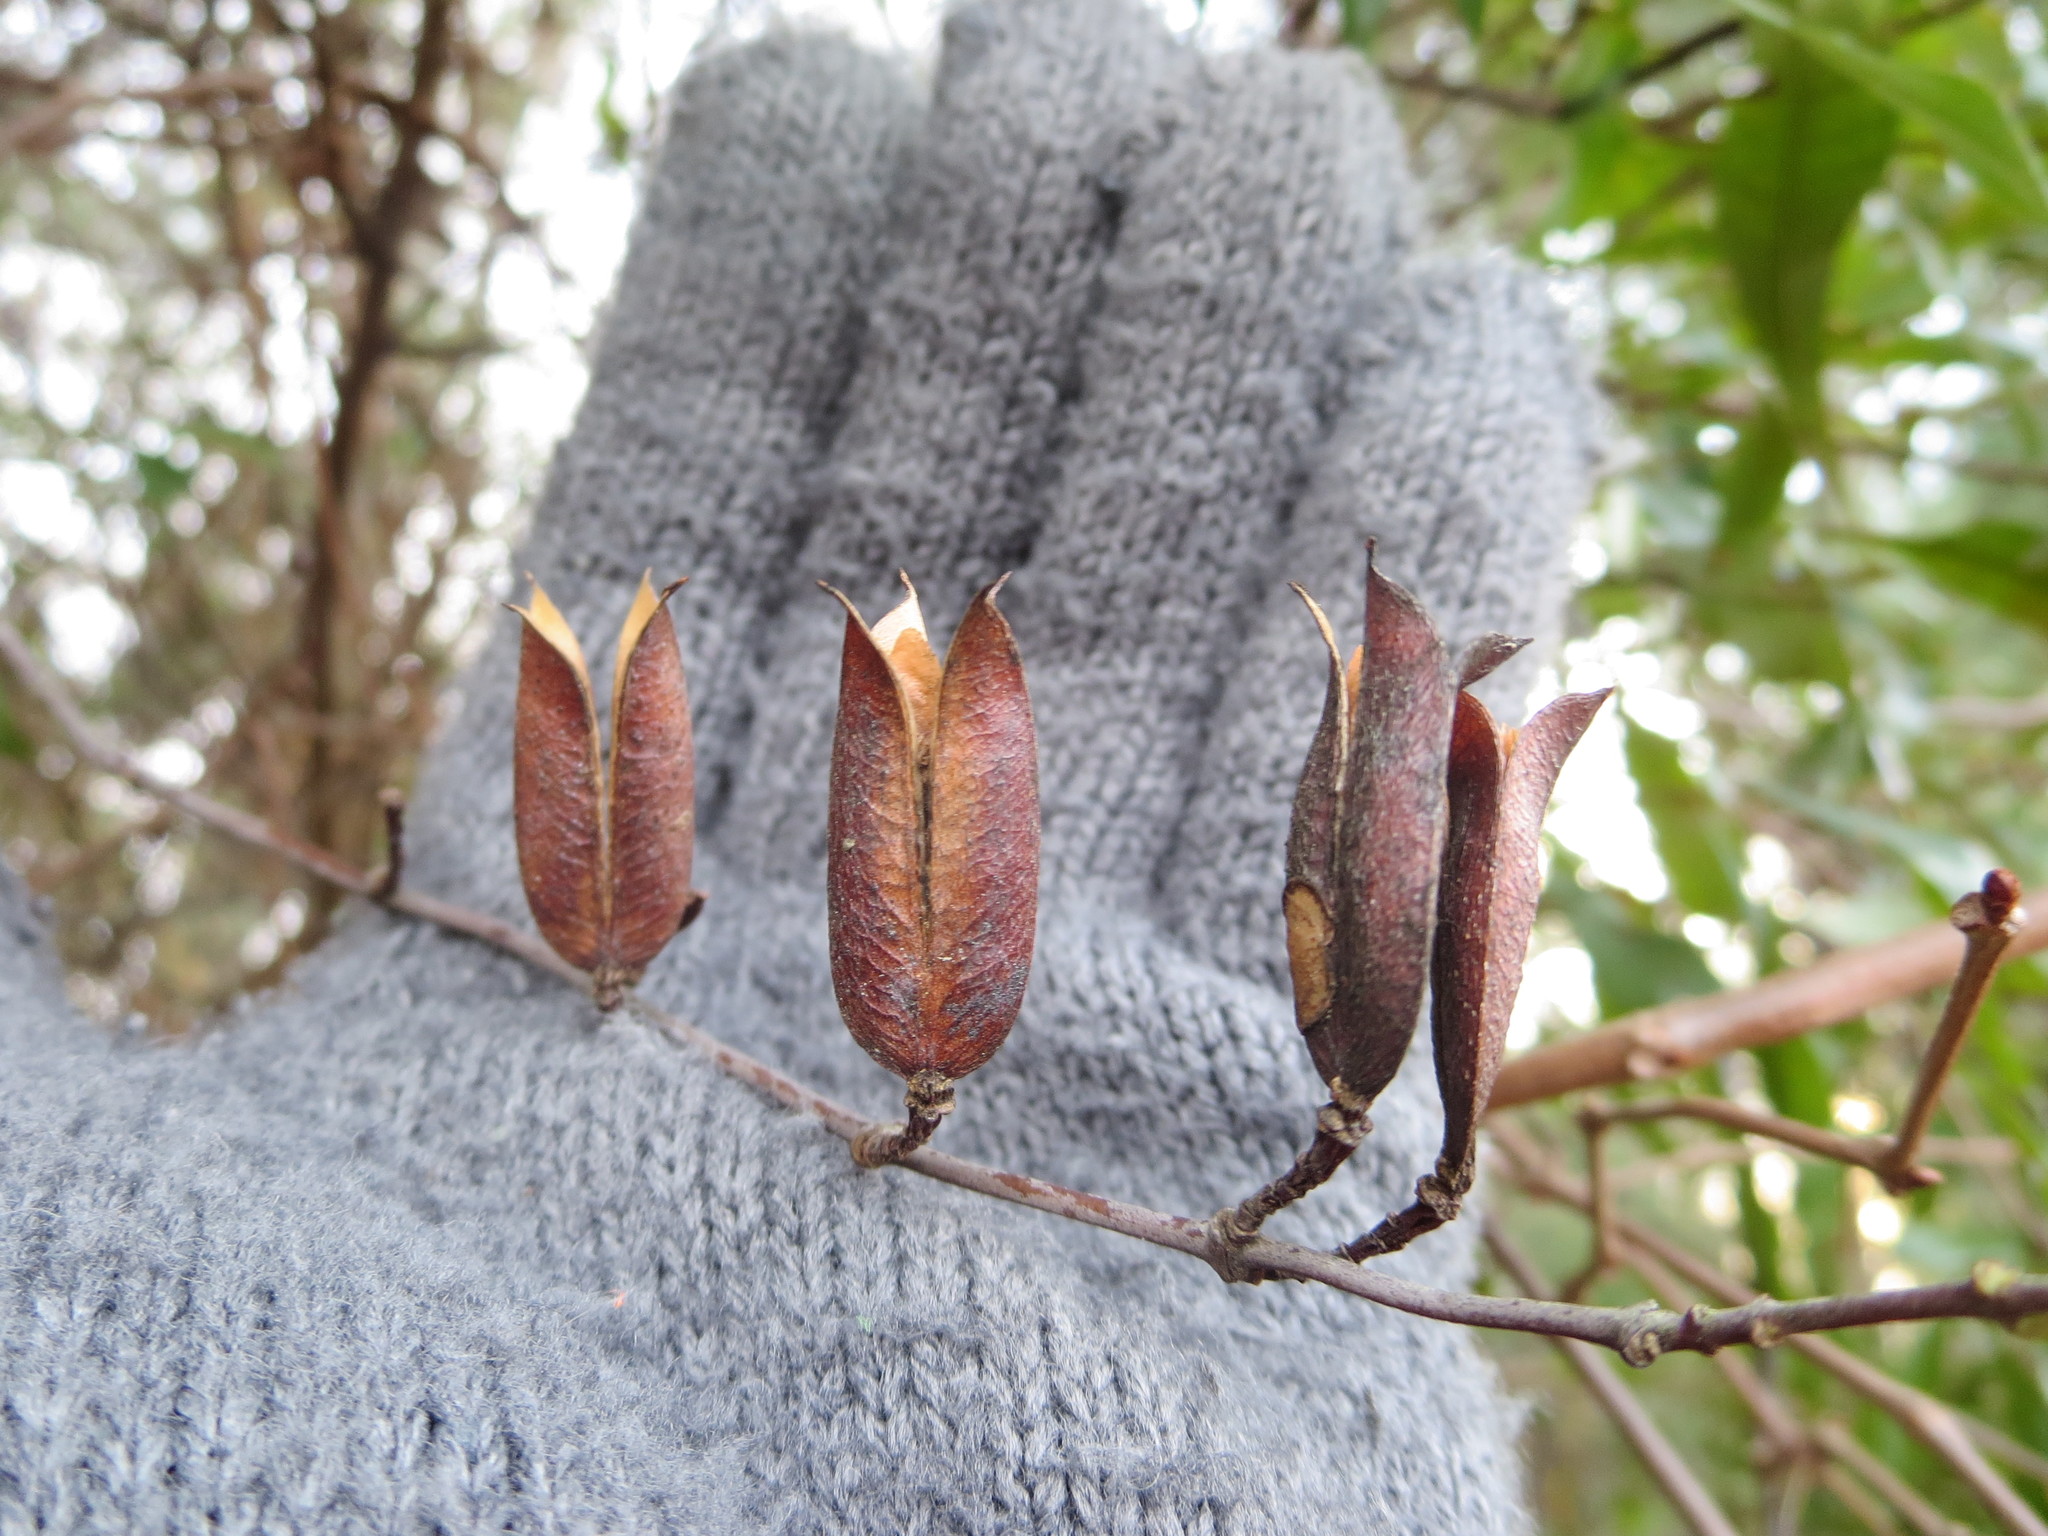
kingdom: Plantae
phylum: Tracheophyta
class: Magnoliopsida
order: Gentianales
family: Gelsemiaceae
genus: Gelsemium
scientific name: Gelsemium sempervirens
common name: Carolina-jasmine
